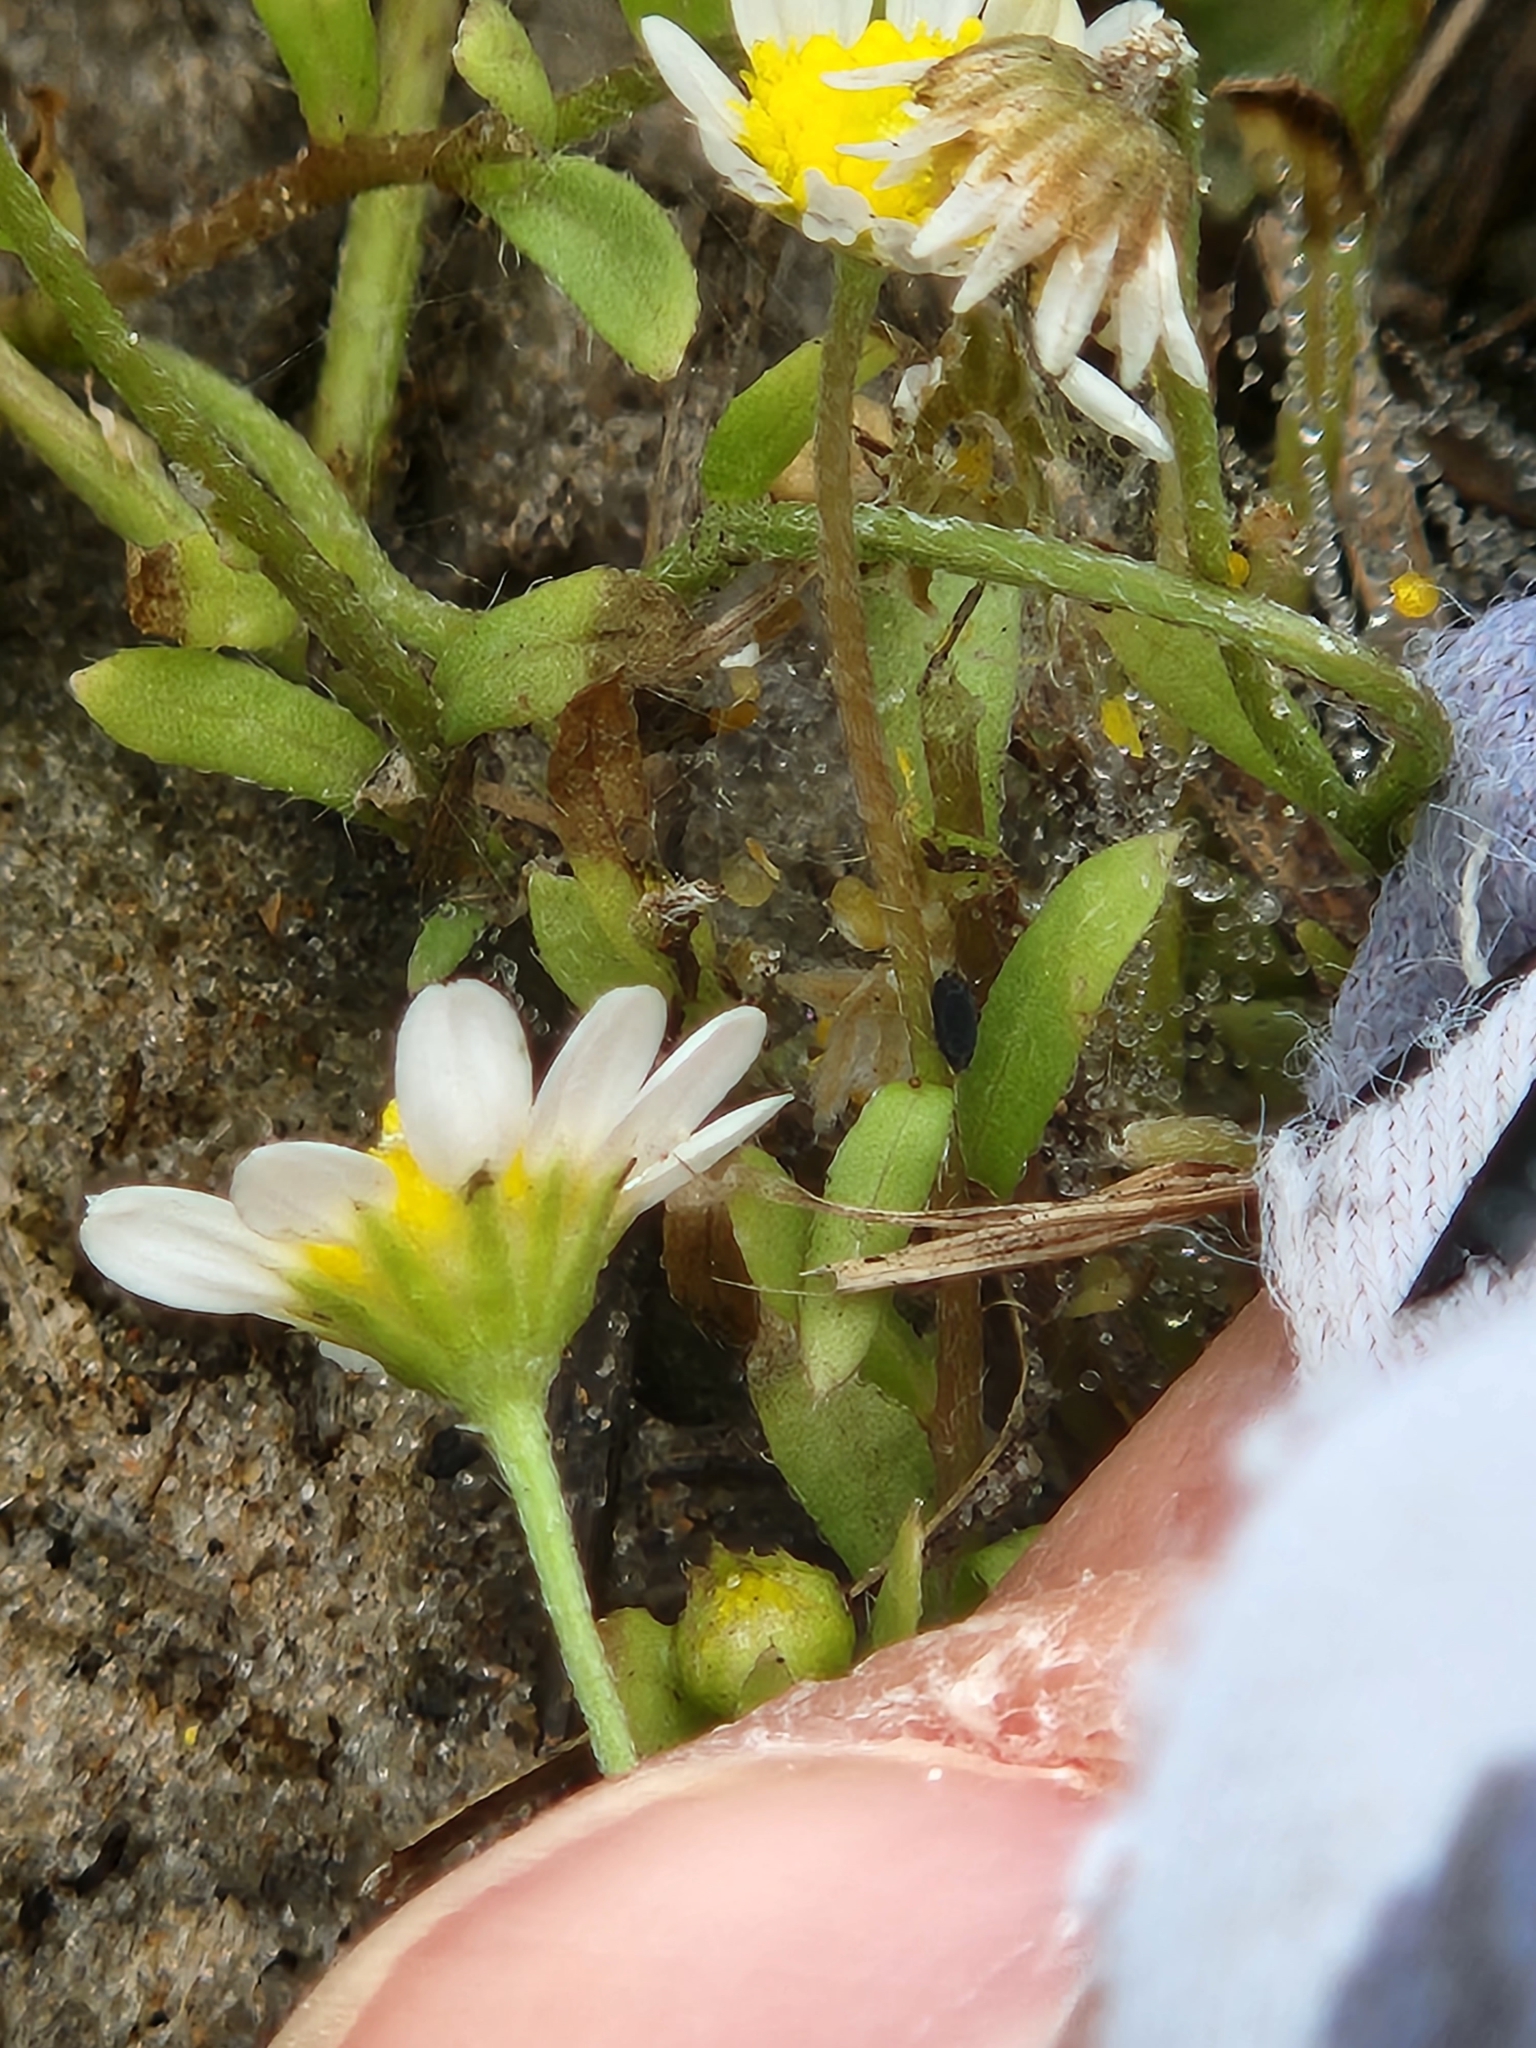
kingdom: Plantae
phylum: Tracheophyta
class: Magnoliopsida
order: Asterales
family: Asteraceae
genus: Astranthium
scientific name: Astranthium ciliatum
